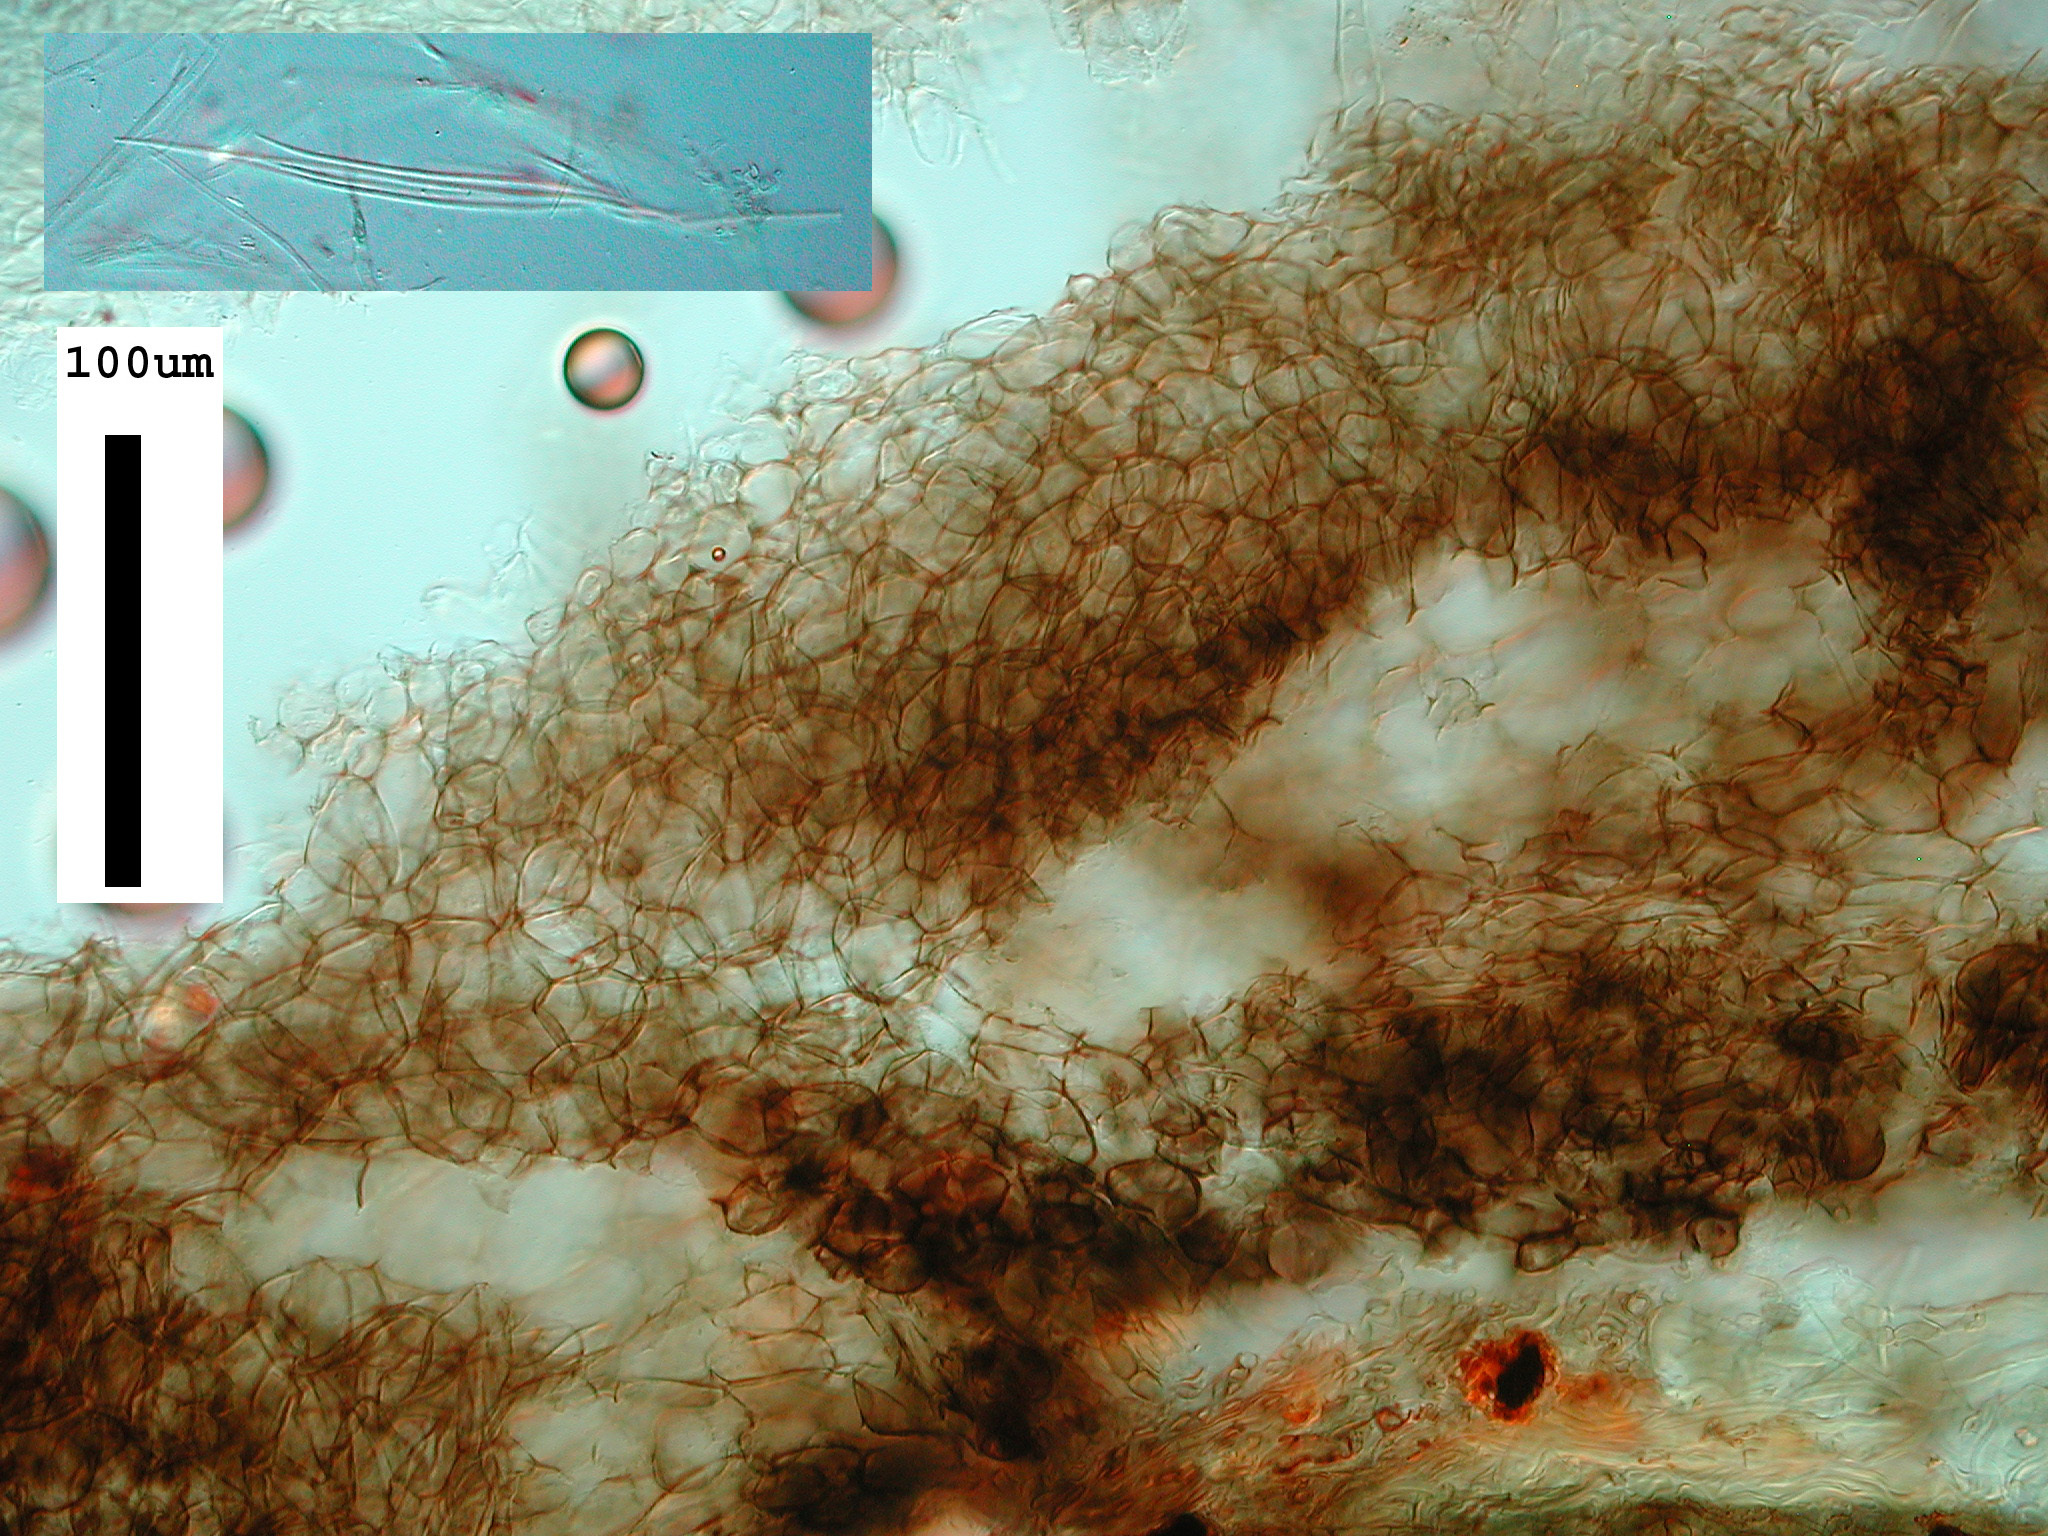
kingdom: Fungi
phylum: Ascomycota
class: Leotiomycetes
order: Helotiales
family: Vibrisseaceae
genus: Vibrissea
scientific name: Vibrissea filisporia
